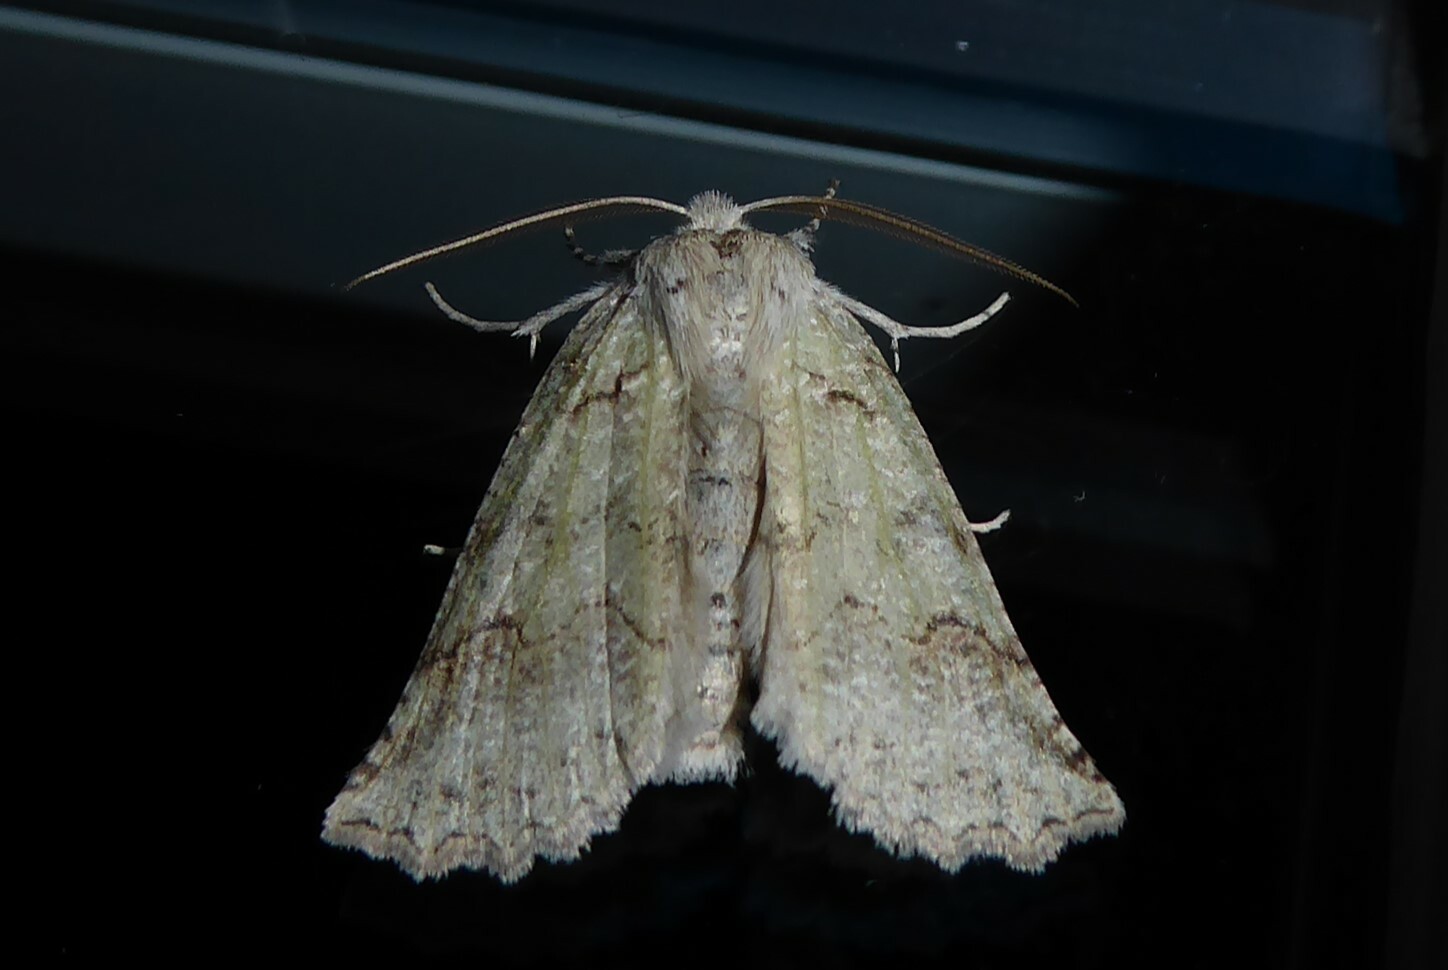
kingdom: Animalia
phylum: Arthropoda
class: Insecta
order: Lepidoptera
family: Geometridae
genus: Declana
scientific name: Declana floccosa
